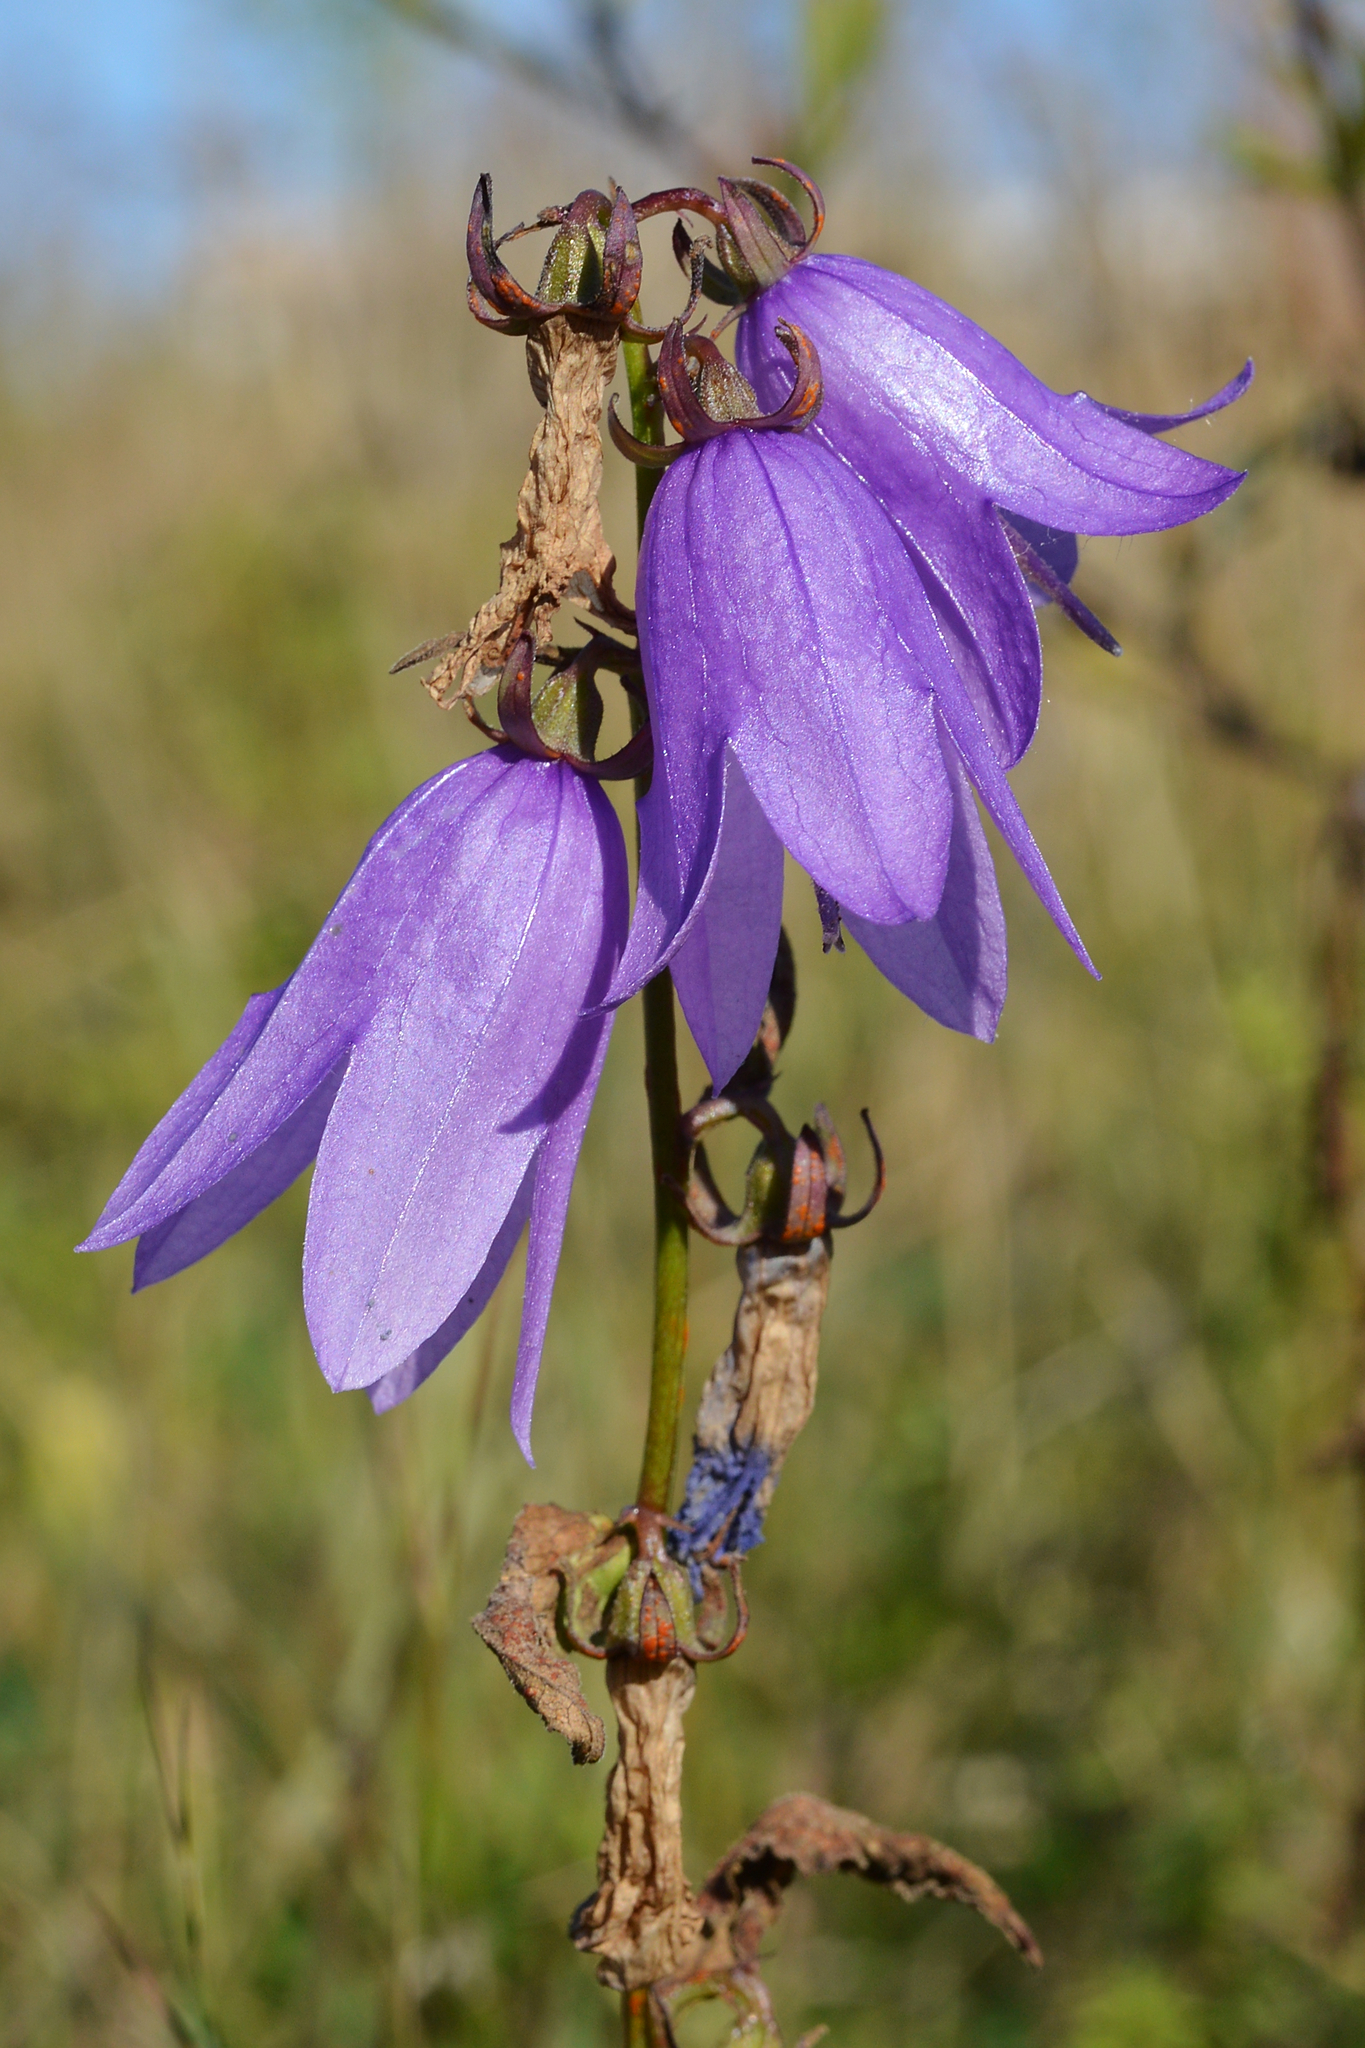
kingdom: Plantae
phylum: Tracheophyta
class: Magnoliopsida
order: Asterales
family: Campanulaceae
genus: Campanula
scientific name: Campanula rapunculoides
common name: Creeping bellflower
